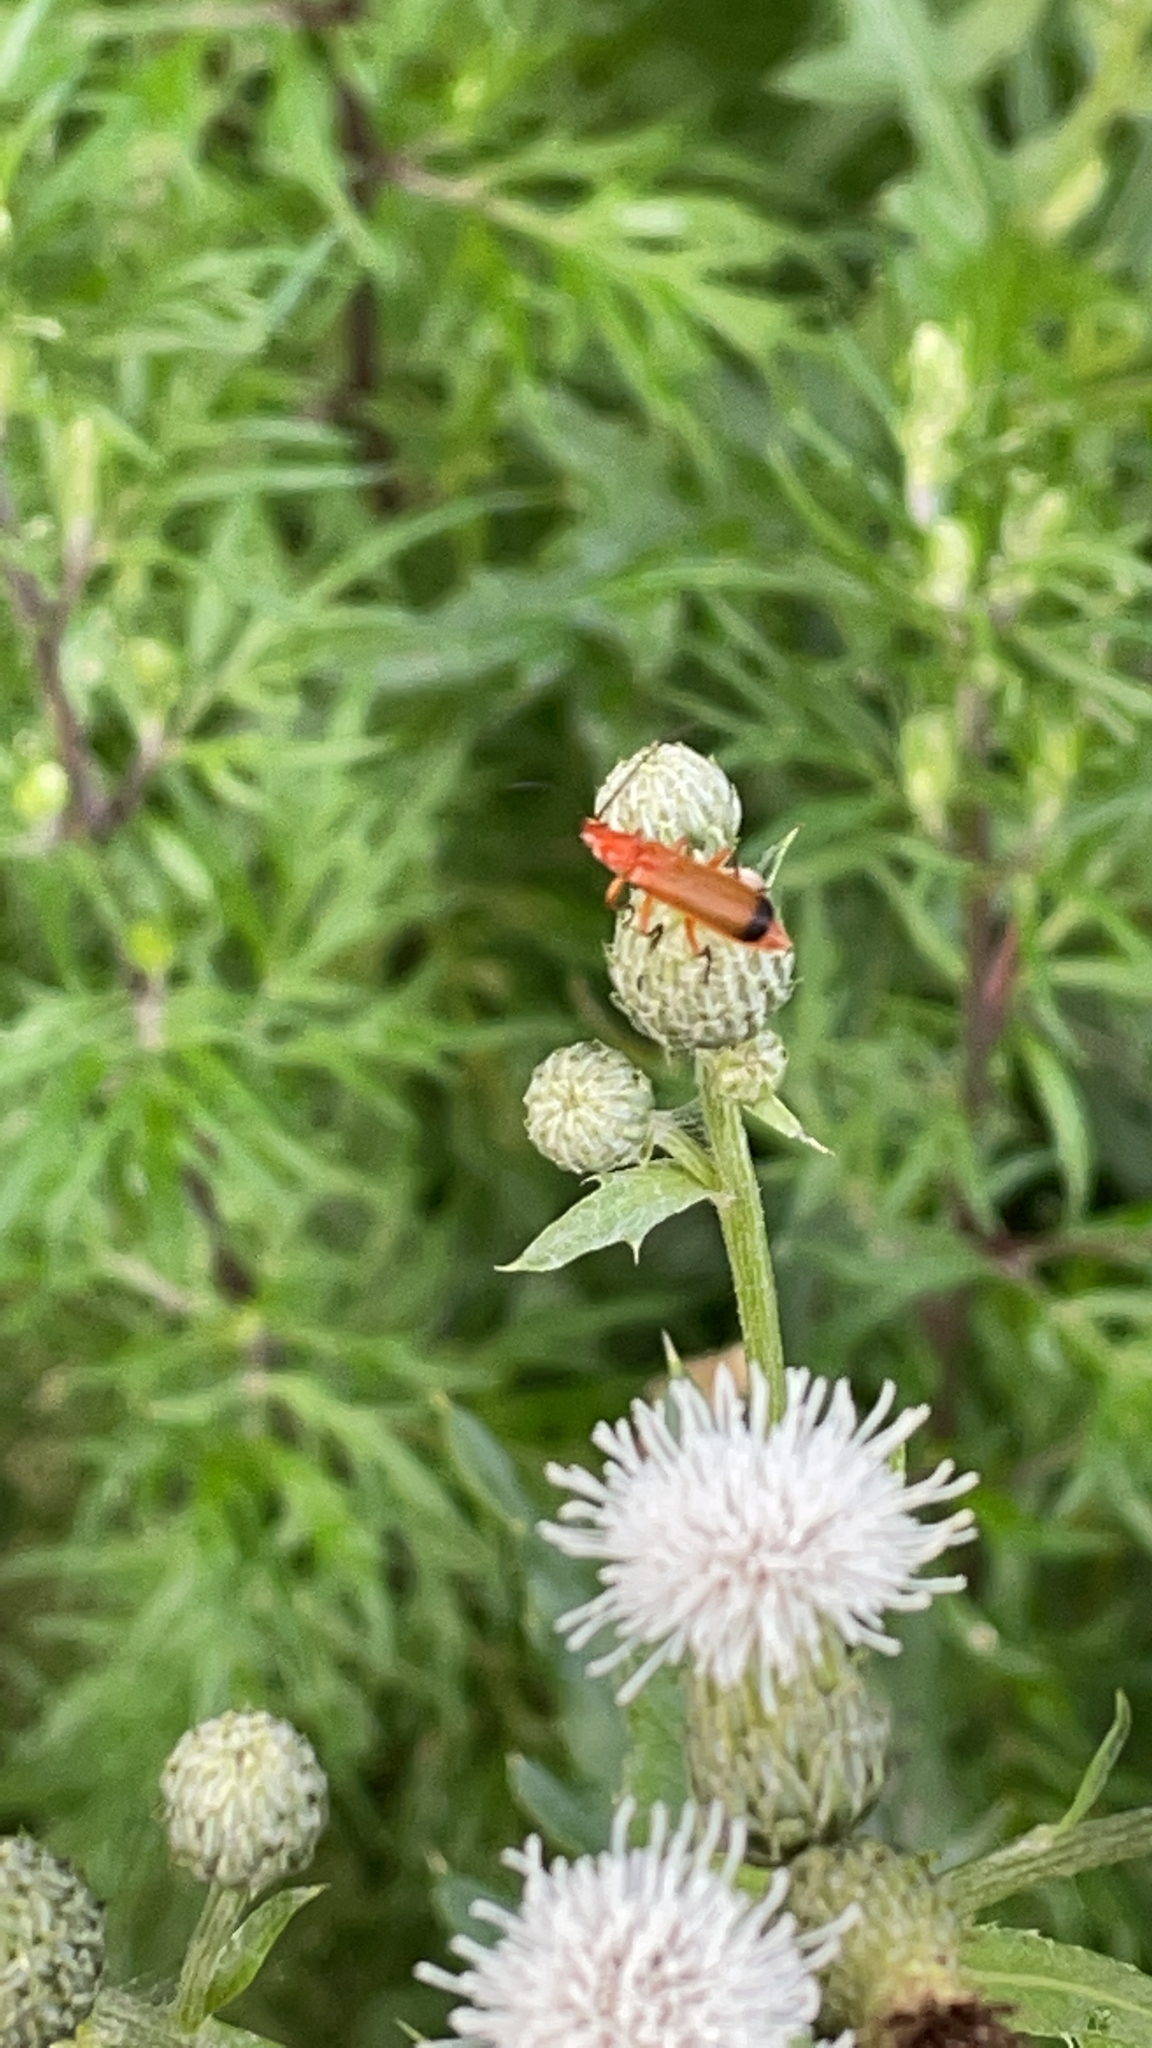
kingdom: Animalia
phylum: Arthropoda
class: Insecta
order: Coleoptera
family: Cantharidae
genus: Rhagonycha
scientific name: Rhagonycha fulva
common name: Common red soldier beetle
